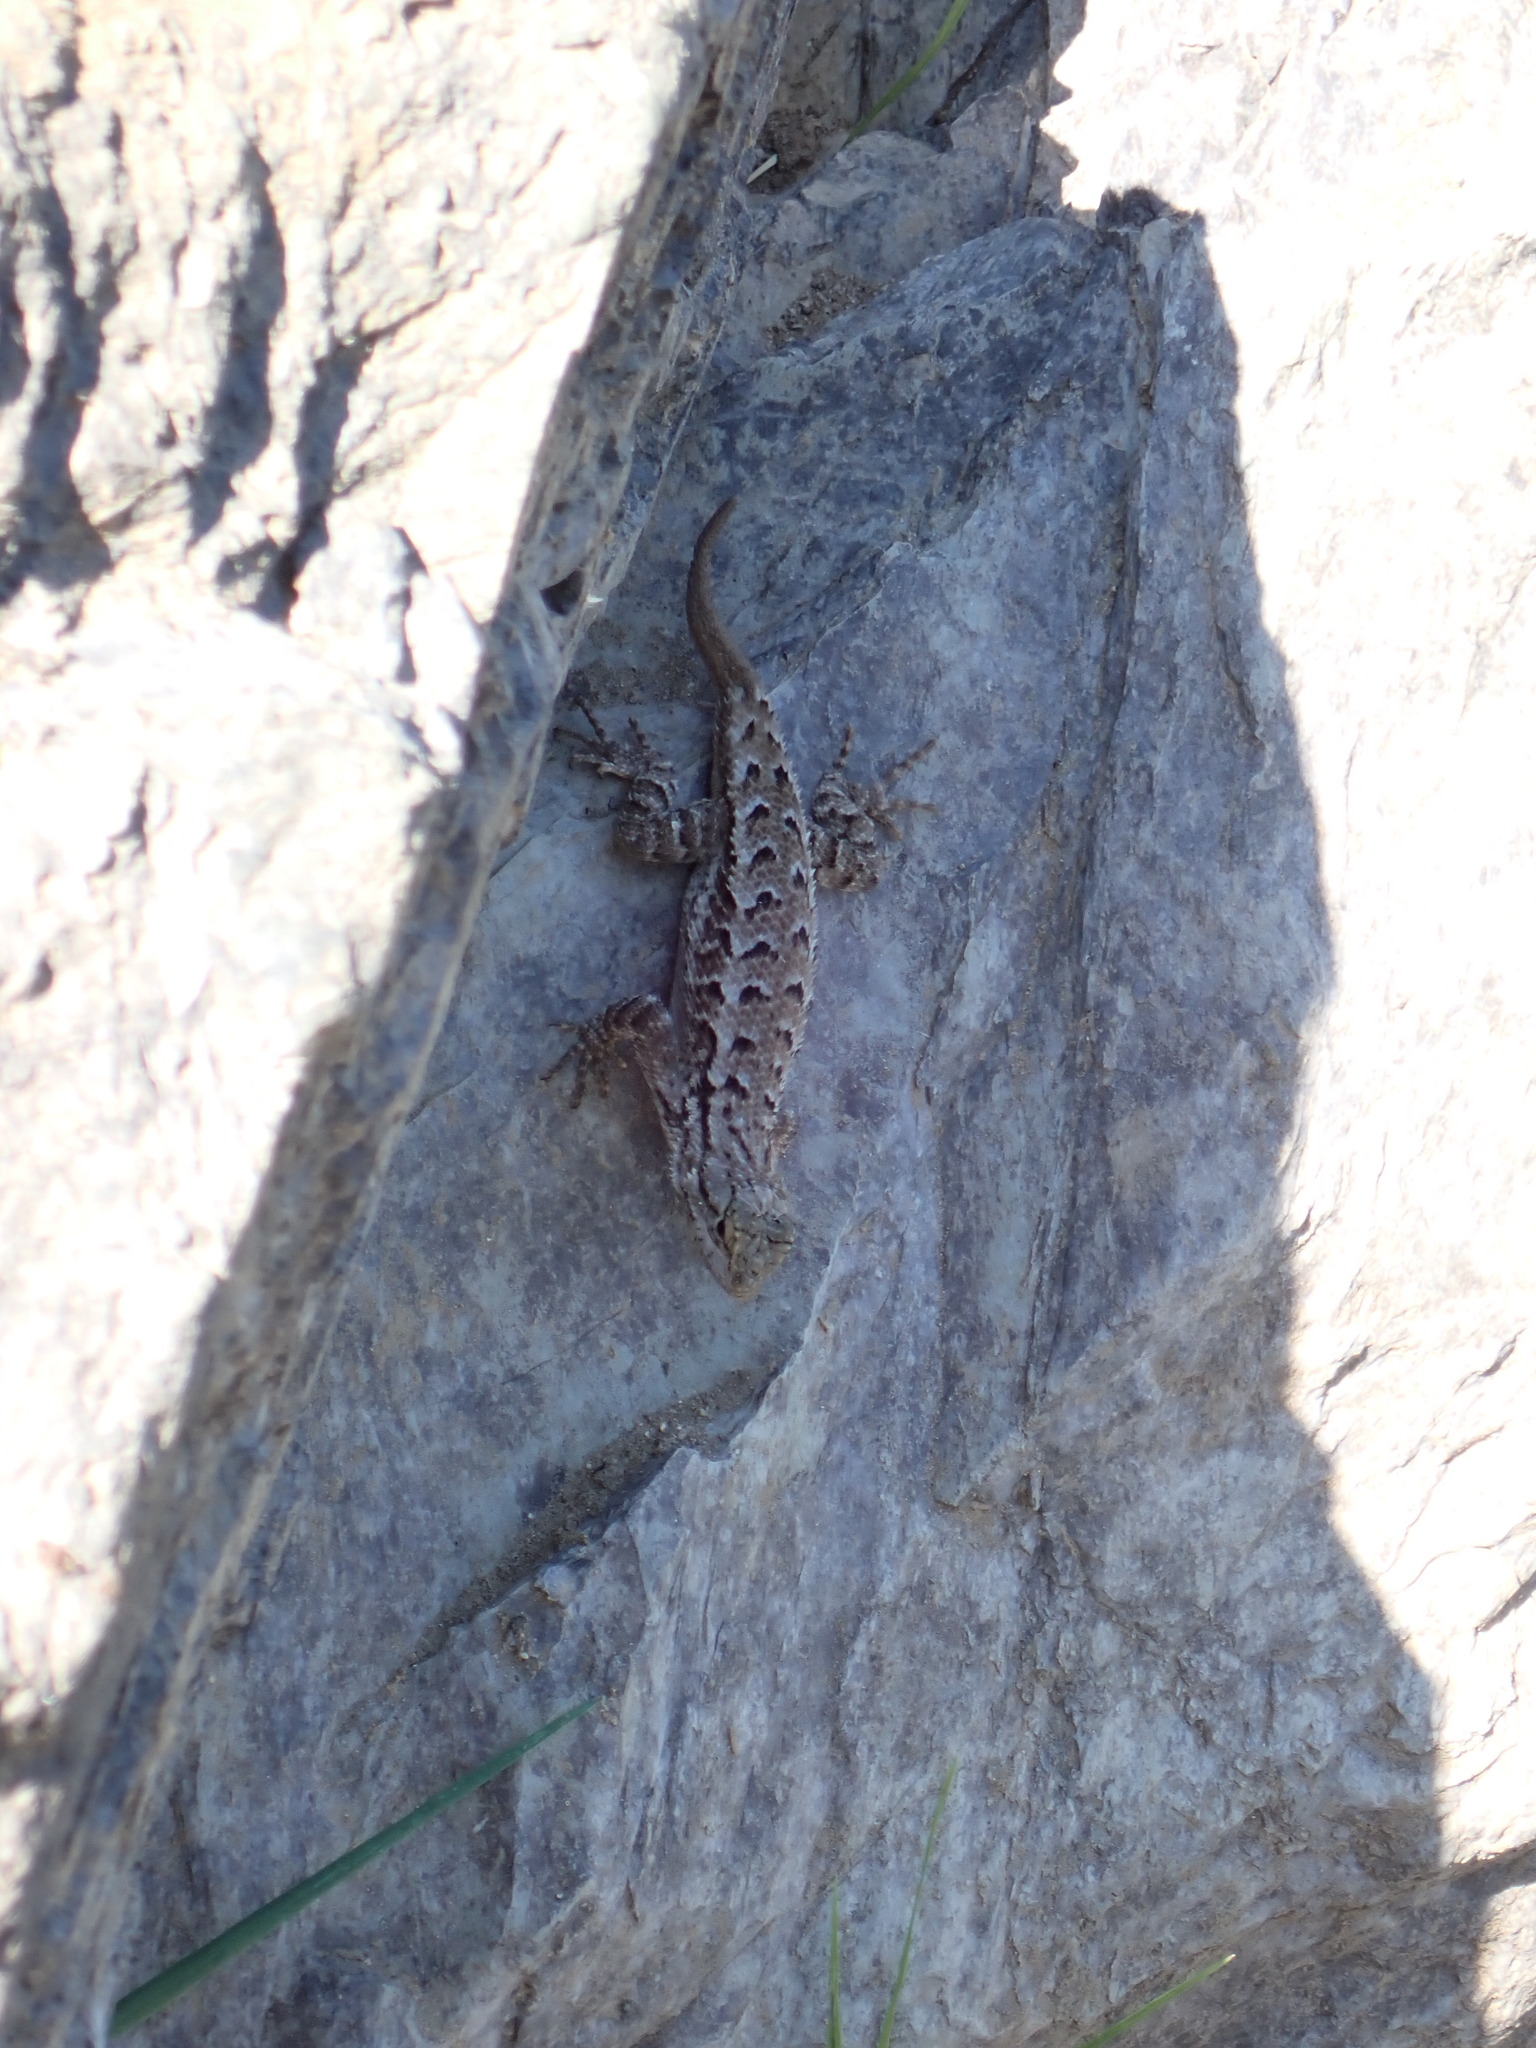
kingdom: Animalia
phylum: Chordata
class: Squamata
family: Phrynosomatidae
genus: Sceloporus
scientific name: Sceloporus occidentalis
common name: Western fence lizard
